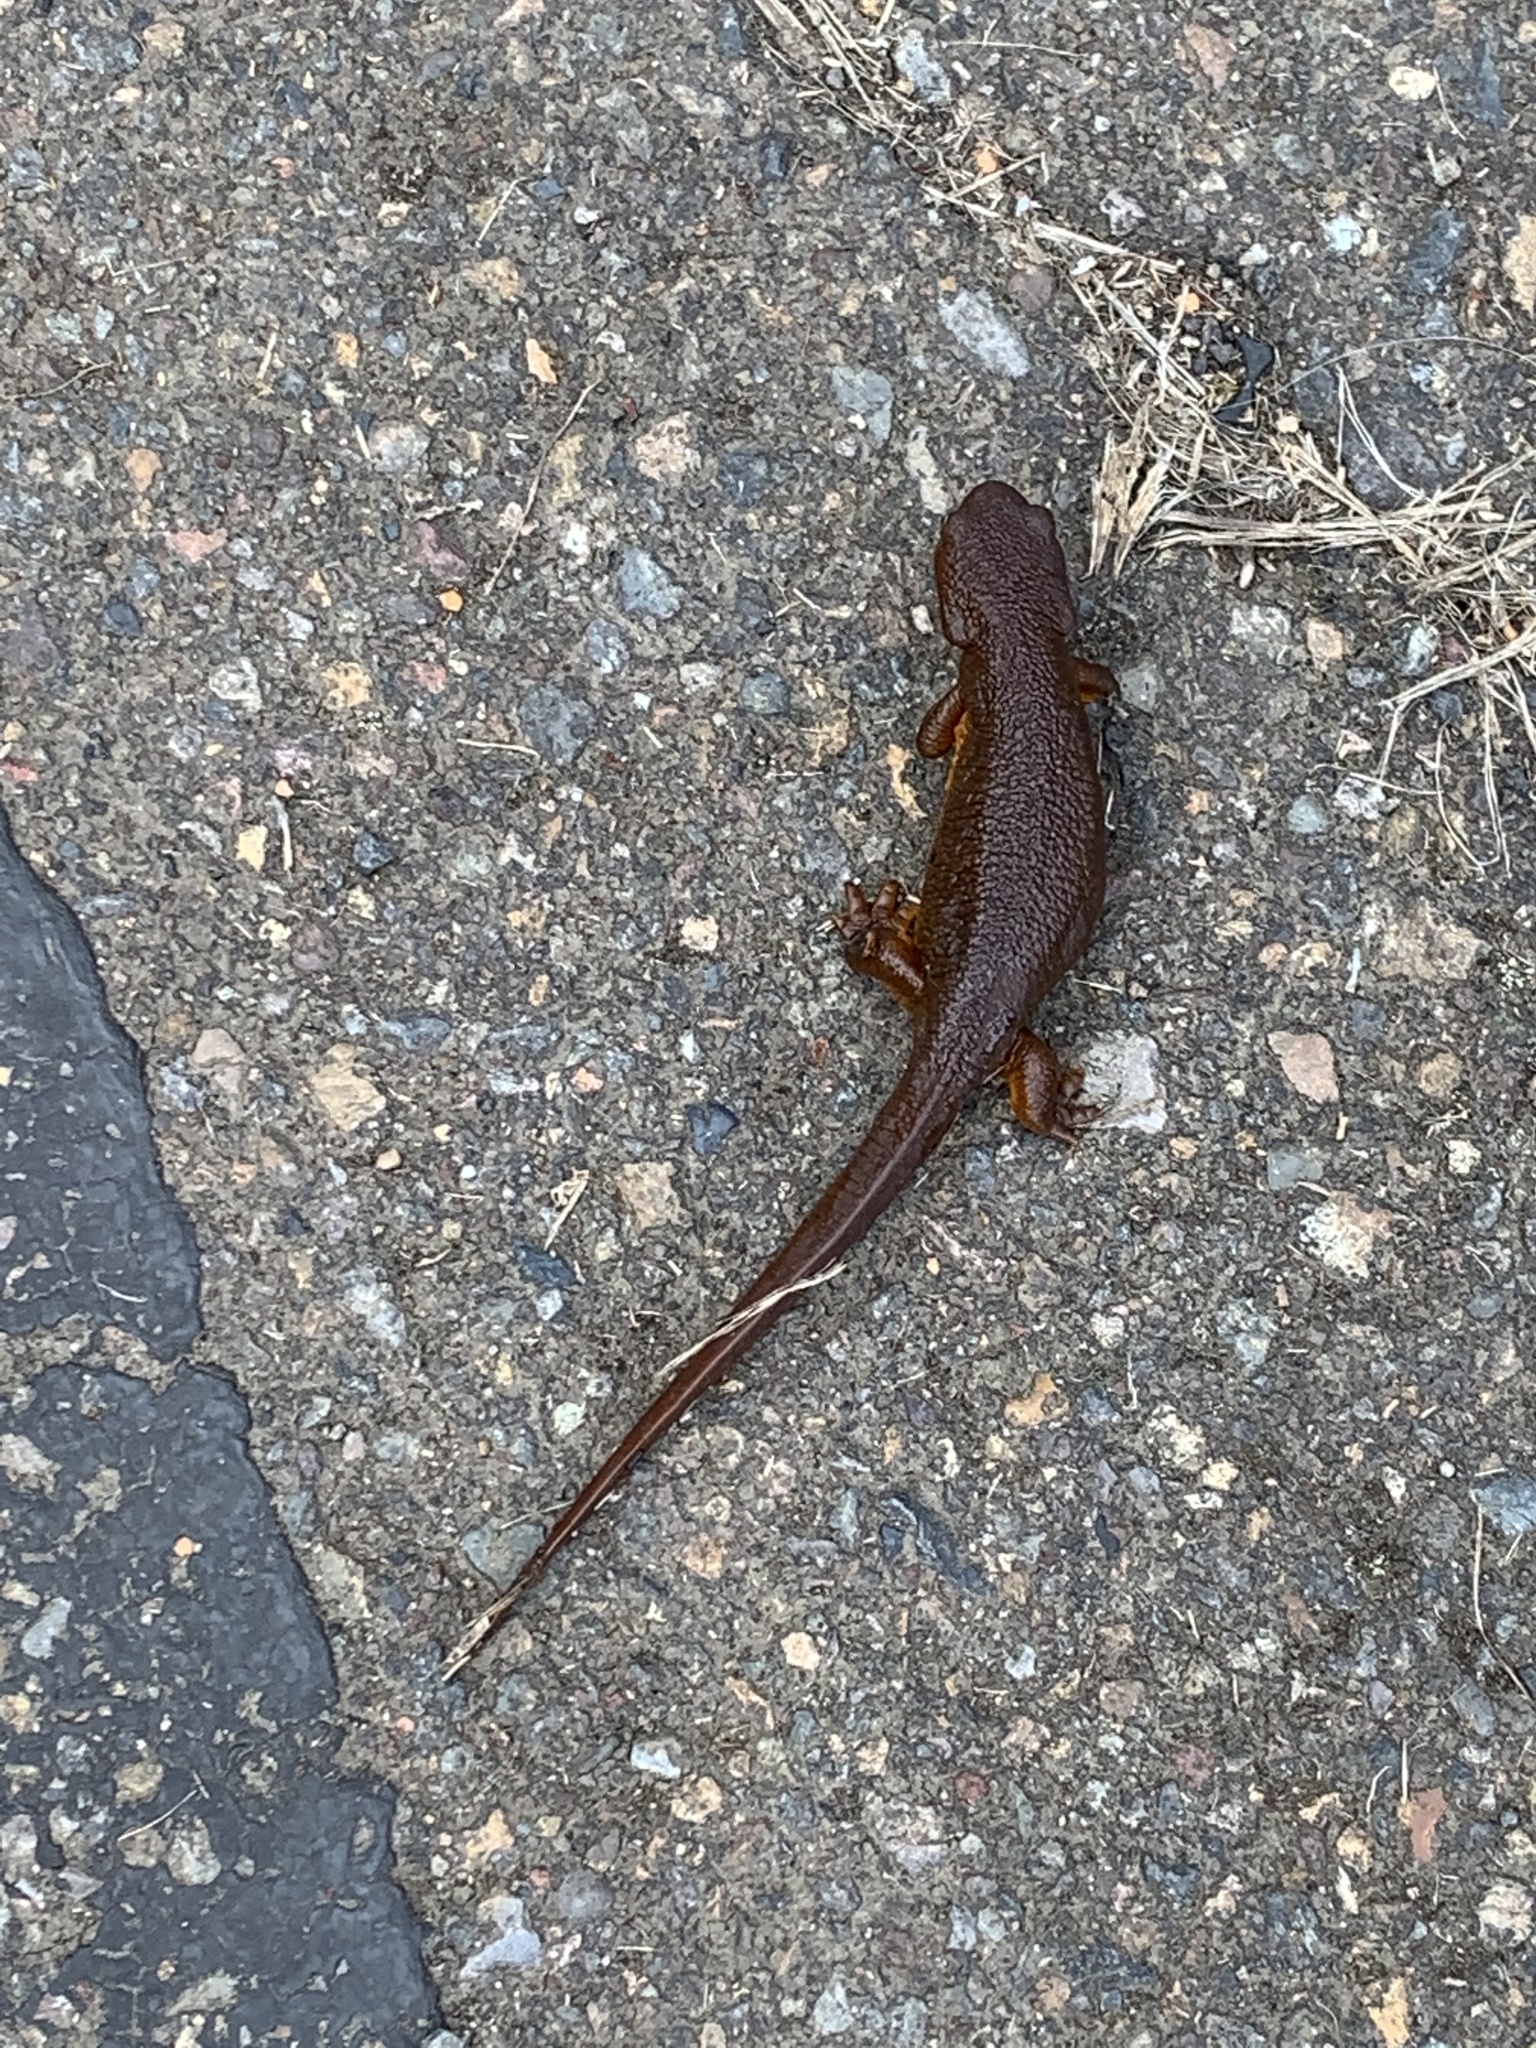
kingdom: Animalia
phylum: Chordata
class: Amphibia
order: Caudata
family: Salamandridae
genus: Taricha
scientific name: Taricha granulosa
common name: Roughskin newt
